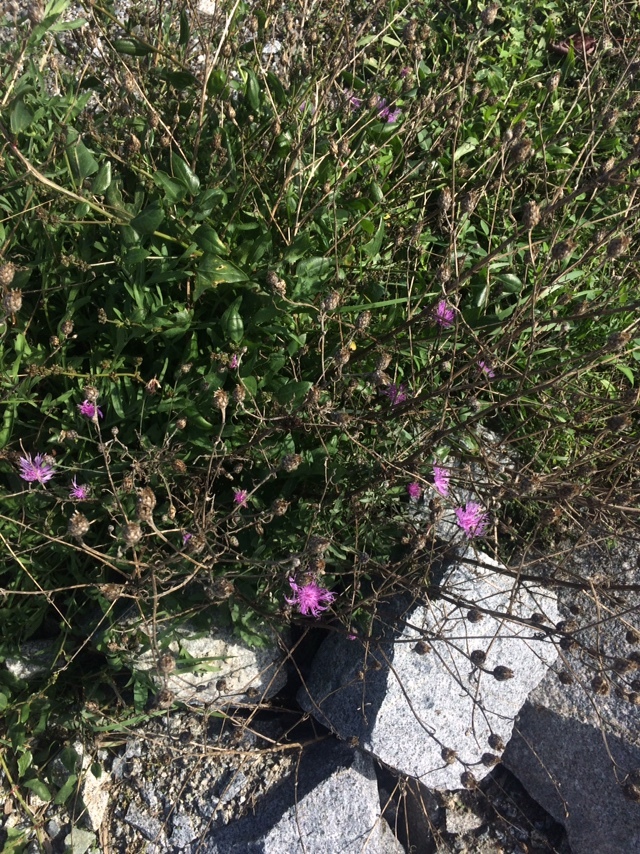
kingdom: Plantae
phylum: Tracheophyta
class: Magnoliopsida
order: Asterales
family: Asteraceae
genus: Centaurea
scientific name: Centaurea stoebe
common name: Spotted knapweed
